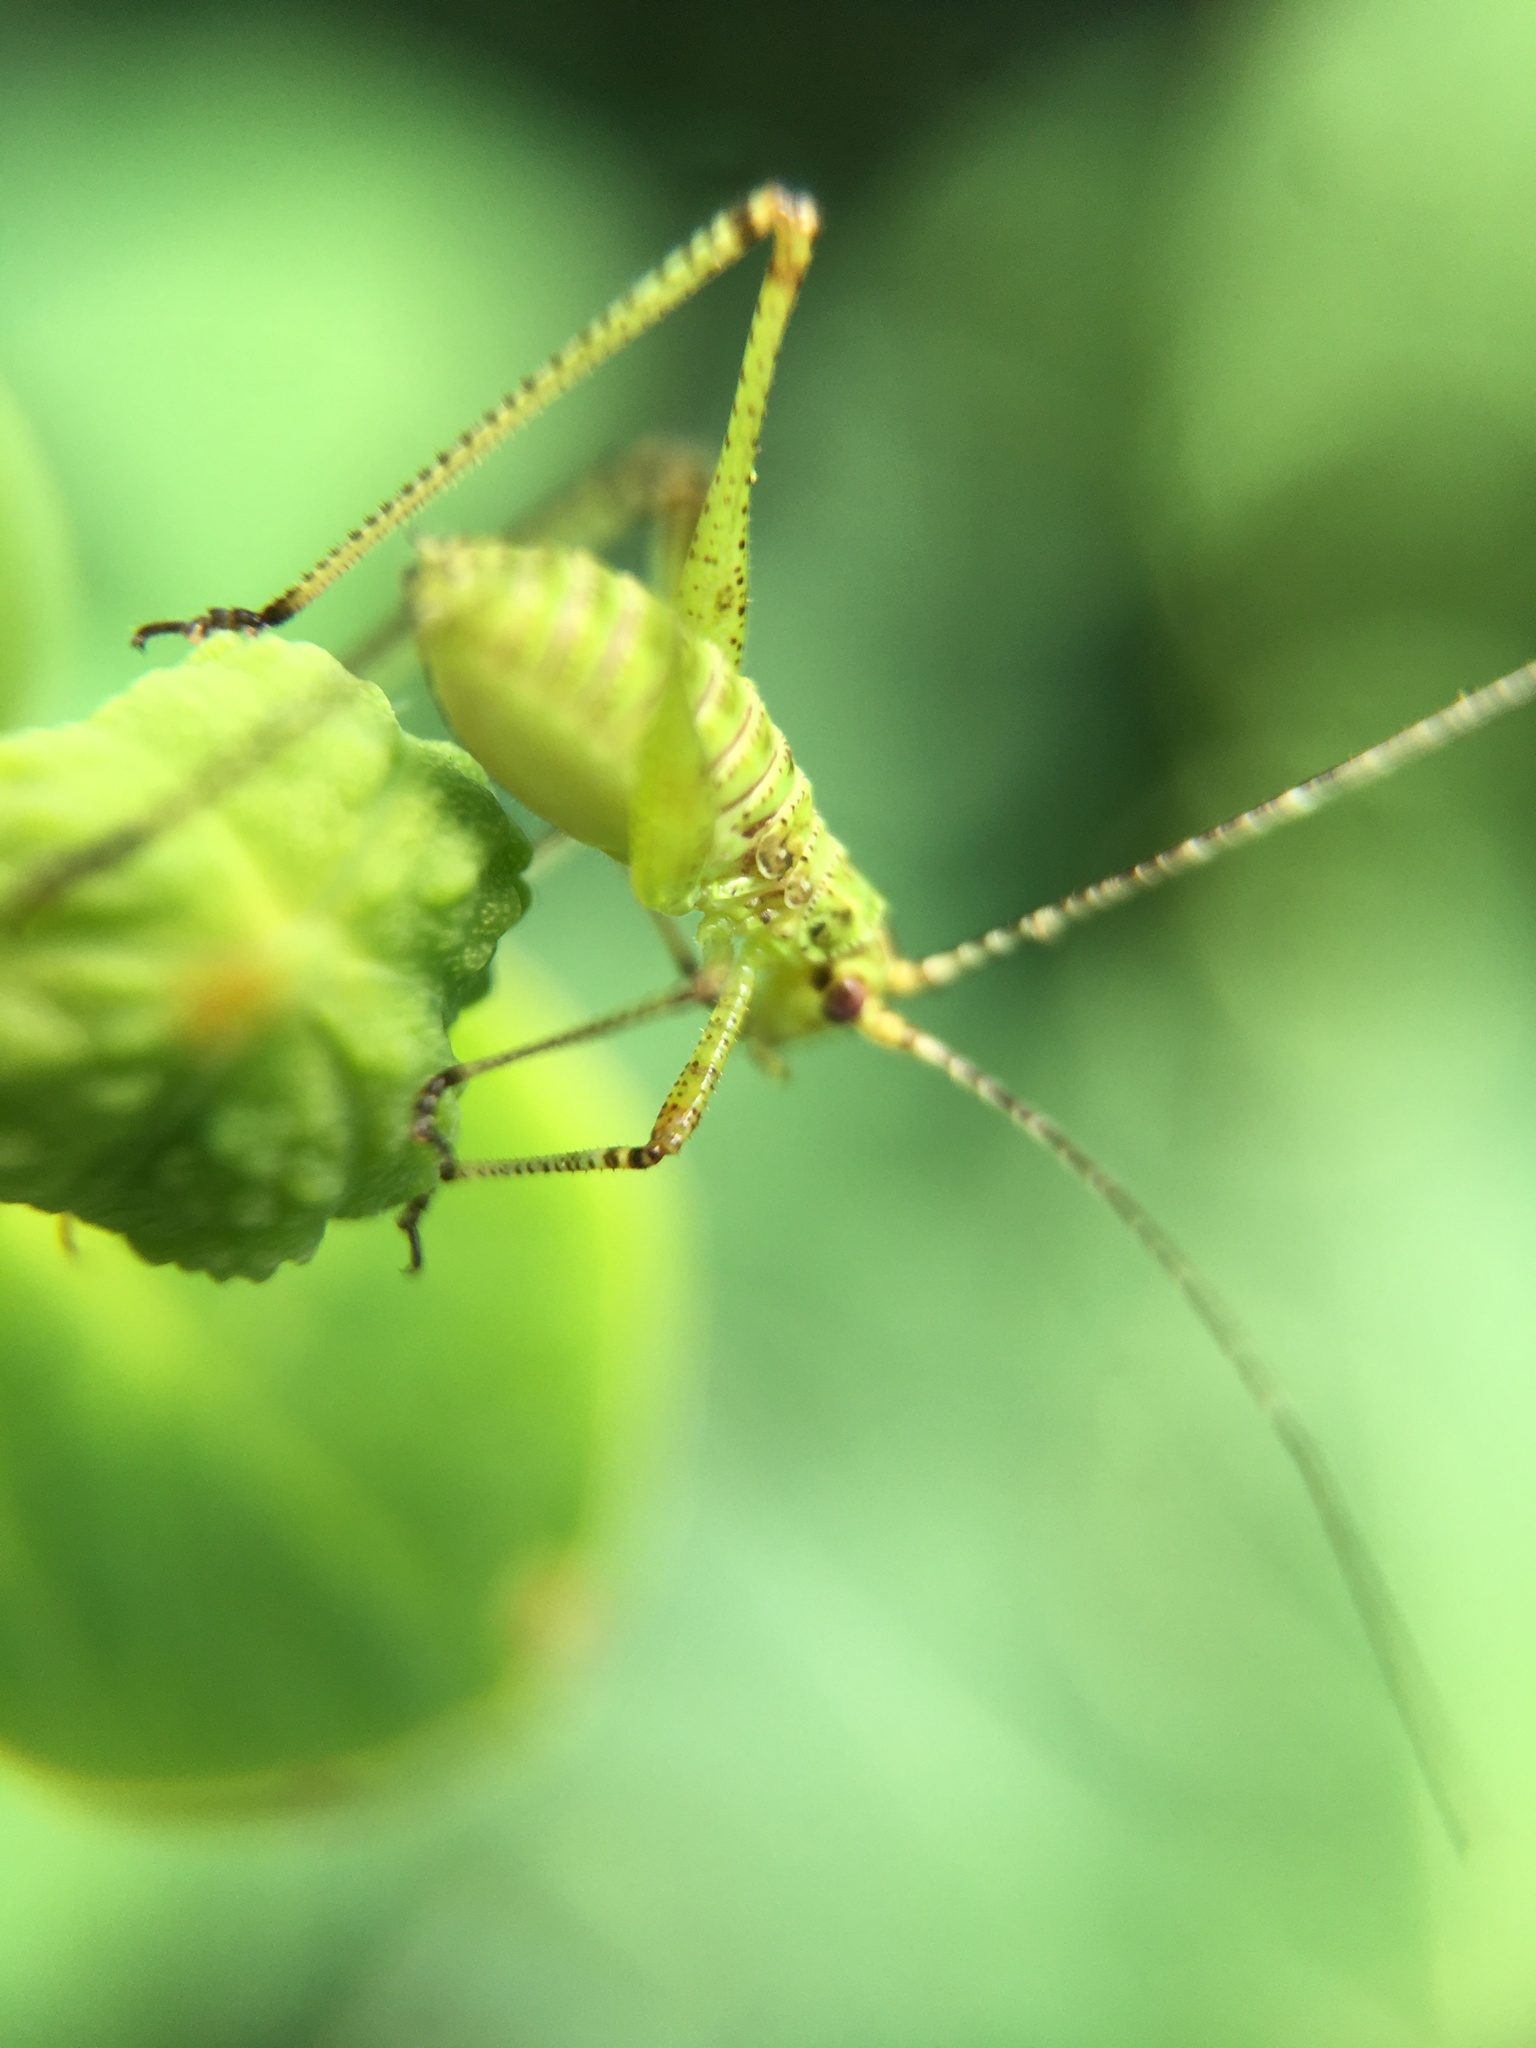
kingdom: Animalia
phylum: Arthropoda
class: Insecta
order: Orthoptera
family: Tettigoniidae
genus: Phaneroptera
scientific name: Phaneroptera nana
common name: Southern sickle bush-cricket
